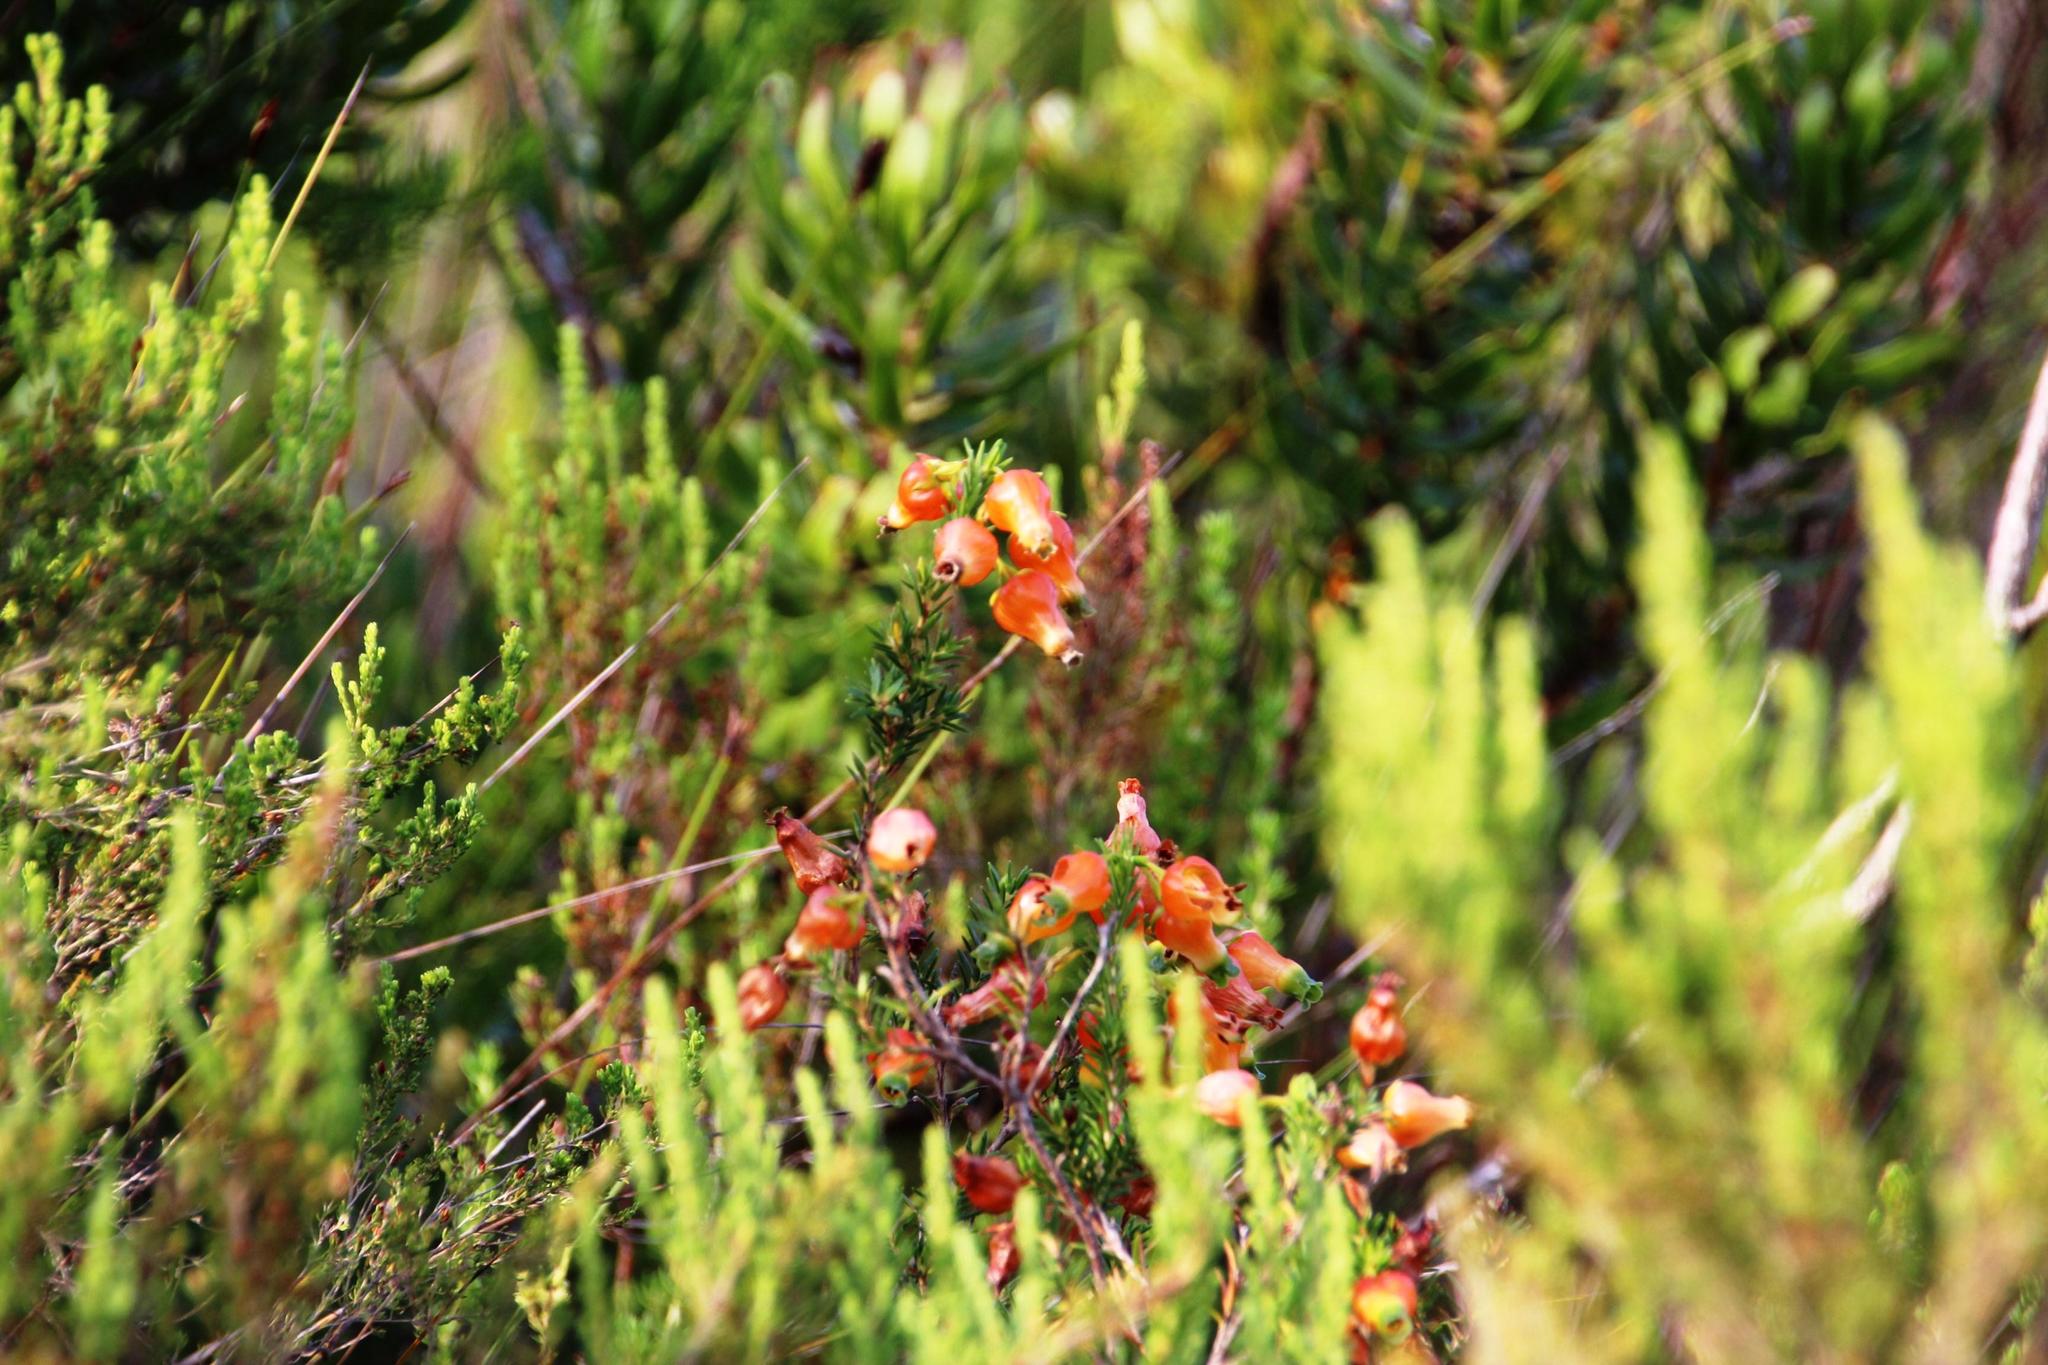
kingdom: Plantae
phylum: Tracheophyta
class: Magnoliopsida
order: Ericales
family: Ericaceae
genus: Erica
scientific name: Erica blenna
